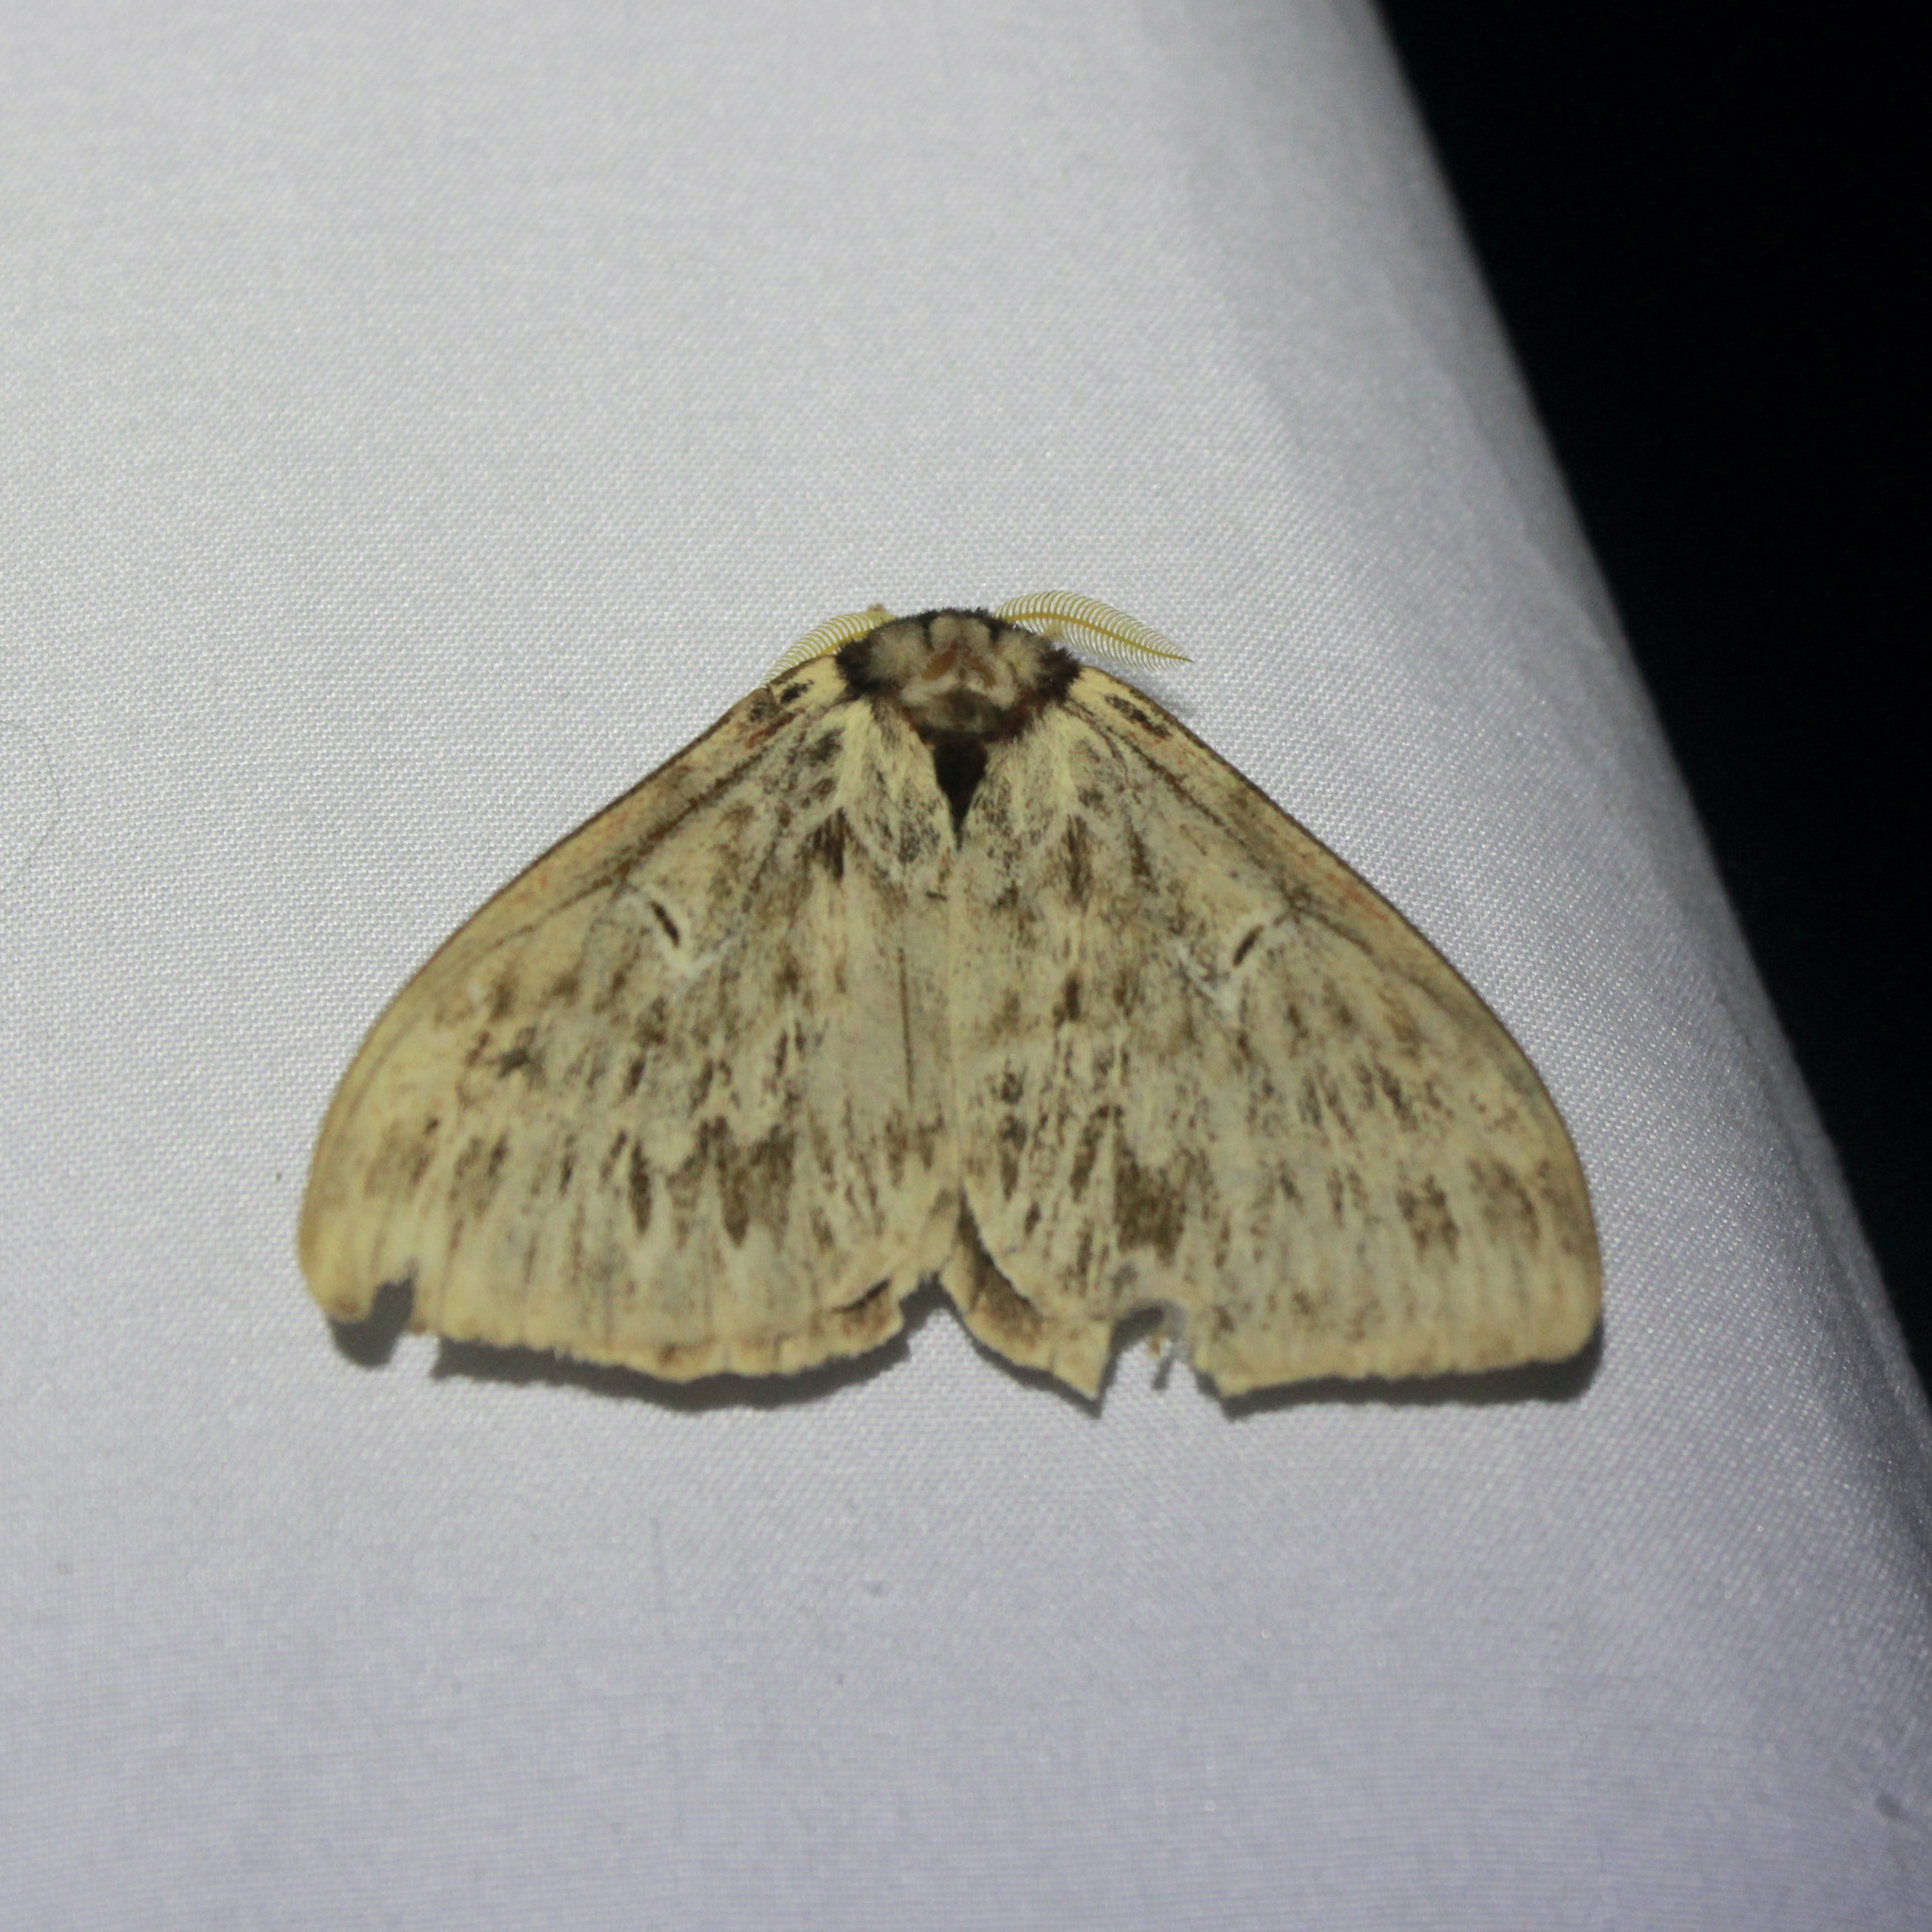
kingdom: Animalia
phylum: Arthropoda
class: Insecta
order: Lepidoptera
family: Saturniidae
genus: Dirphia
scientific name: Dirphia radiata
